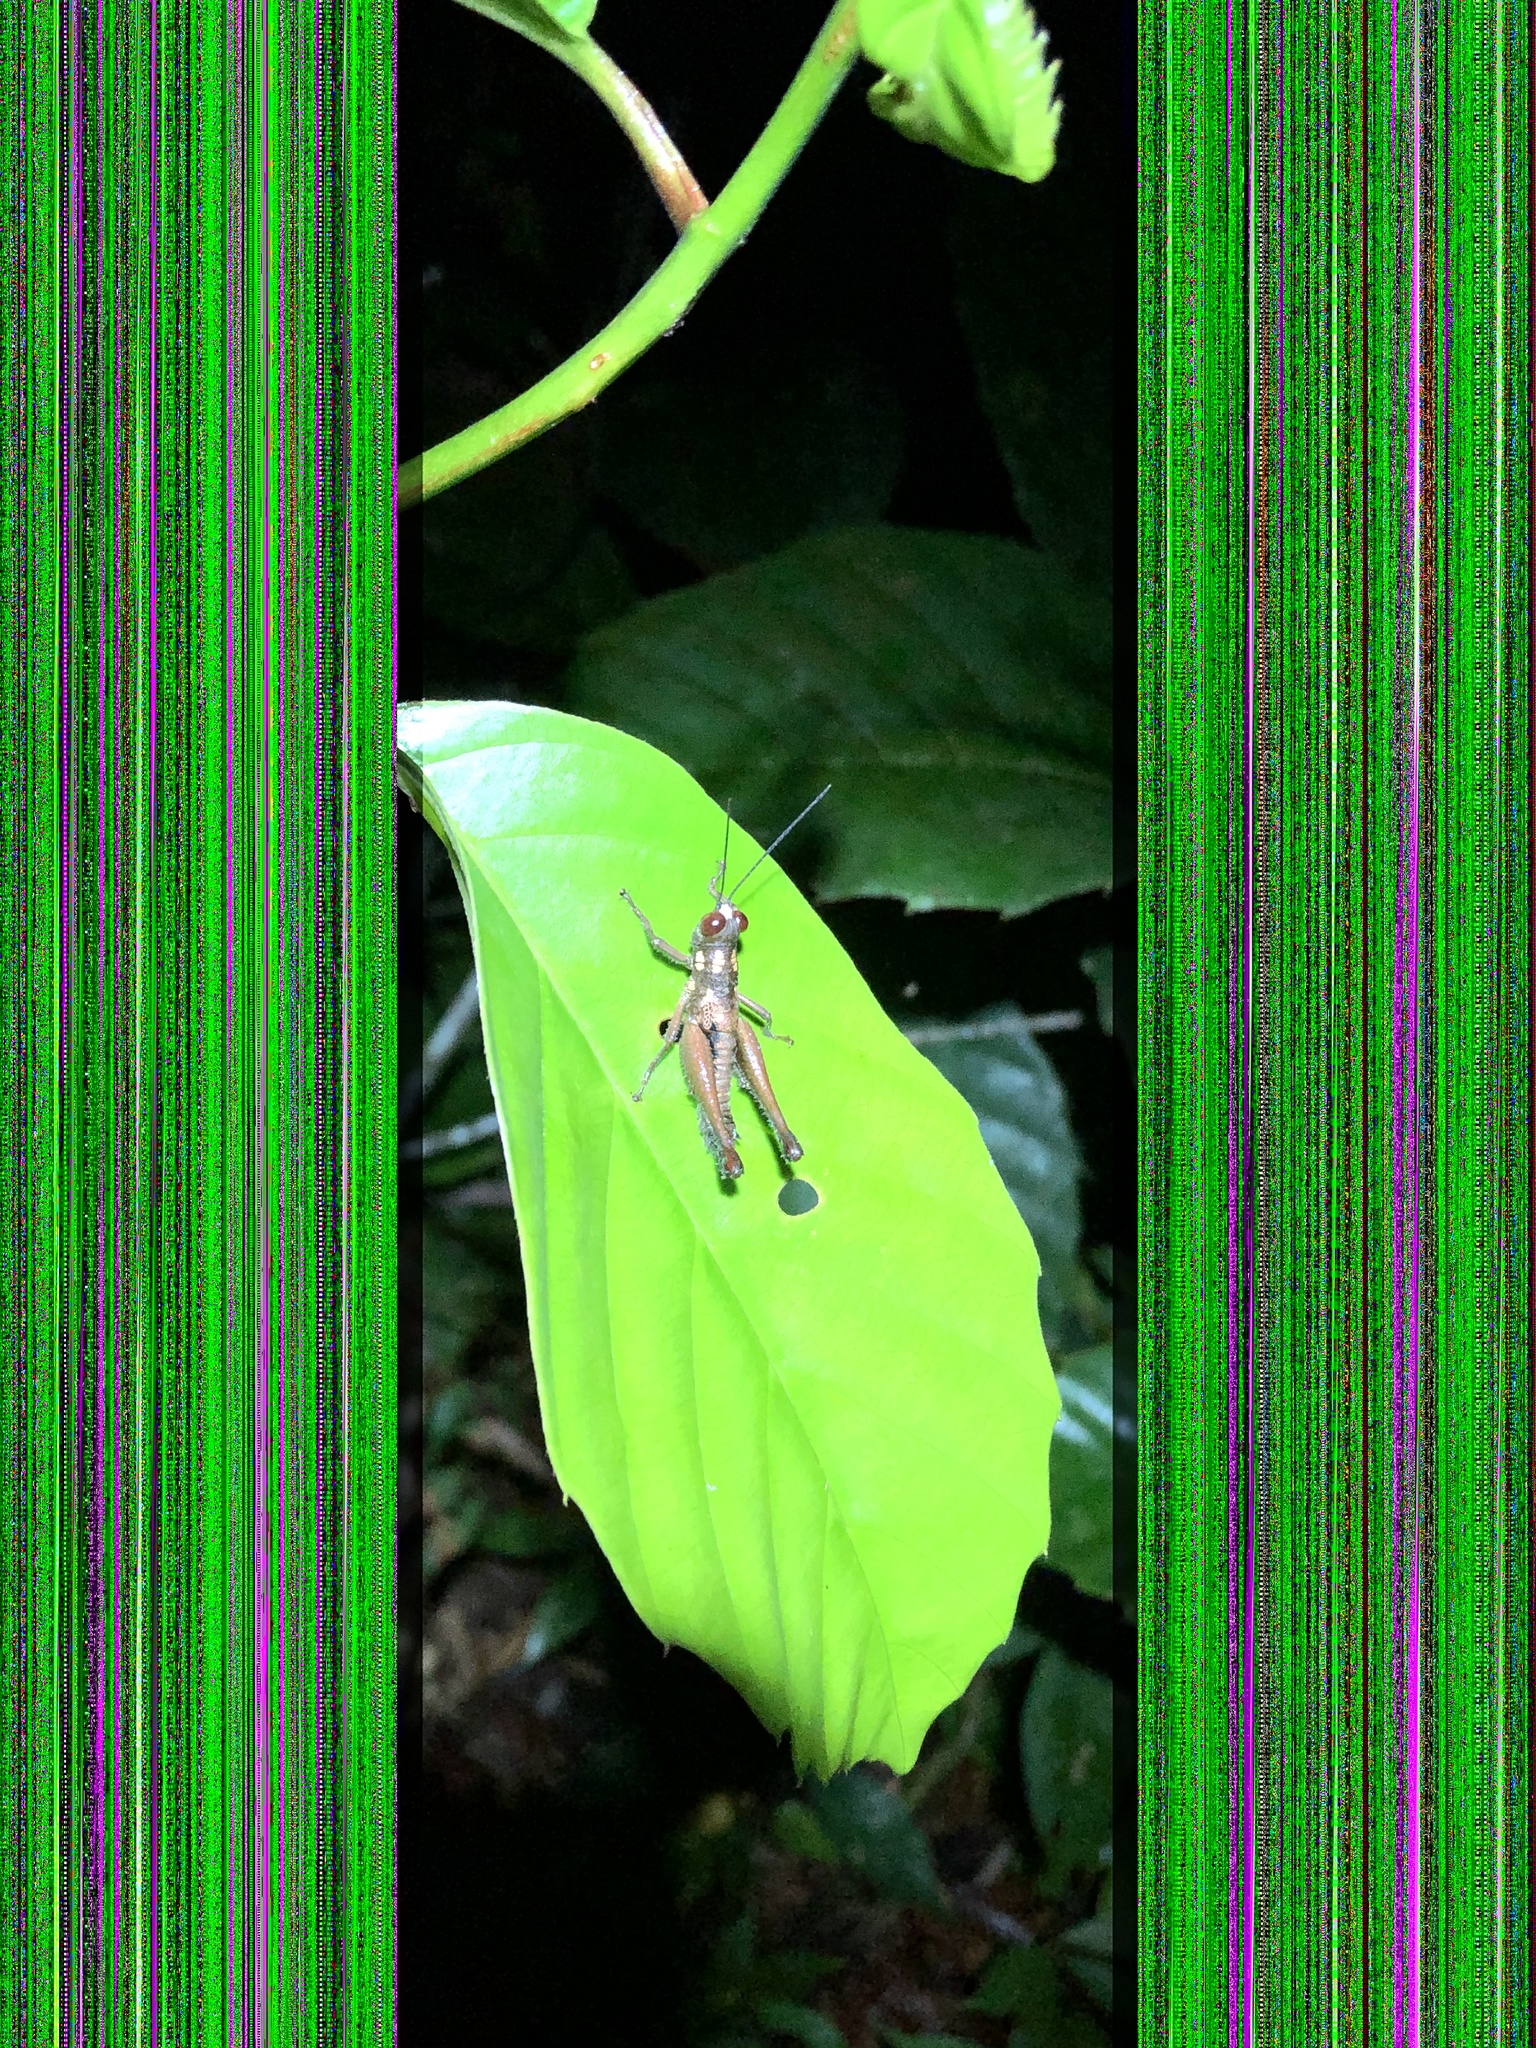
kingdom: Animalia
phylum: Arthropoda
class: Insecta
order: Orthoptera
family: Acrididae
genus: Stenelutracris
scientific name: Stenelutracris lignicola
